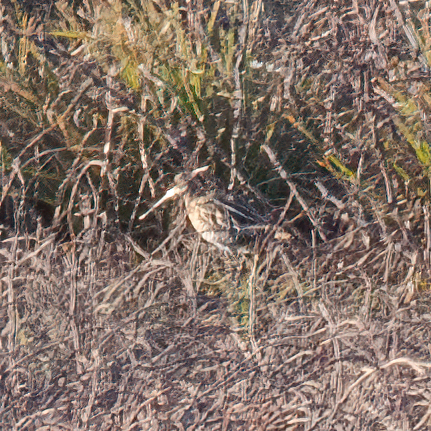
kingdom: Animalia
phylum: Chordata
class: Aves
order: Charadriiformes
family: Scolopacidae
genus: Gallinago
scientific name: Gallinago delicata
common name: Wilson's snipe
